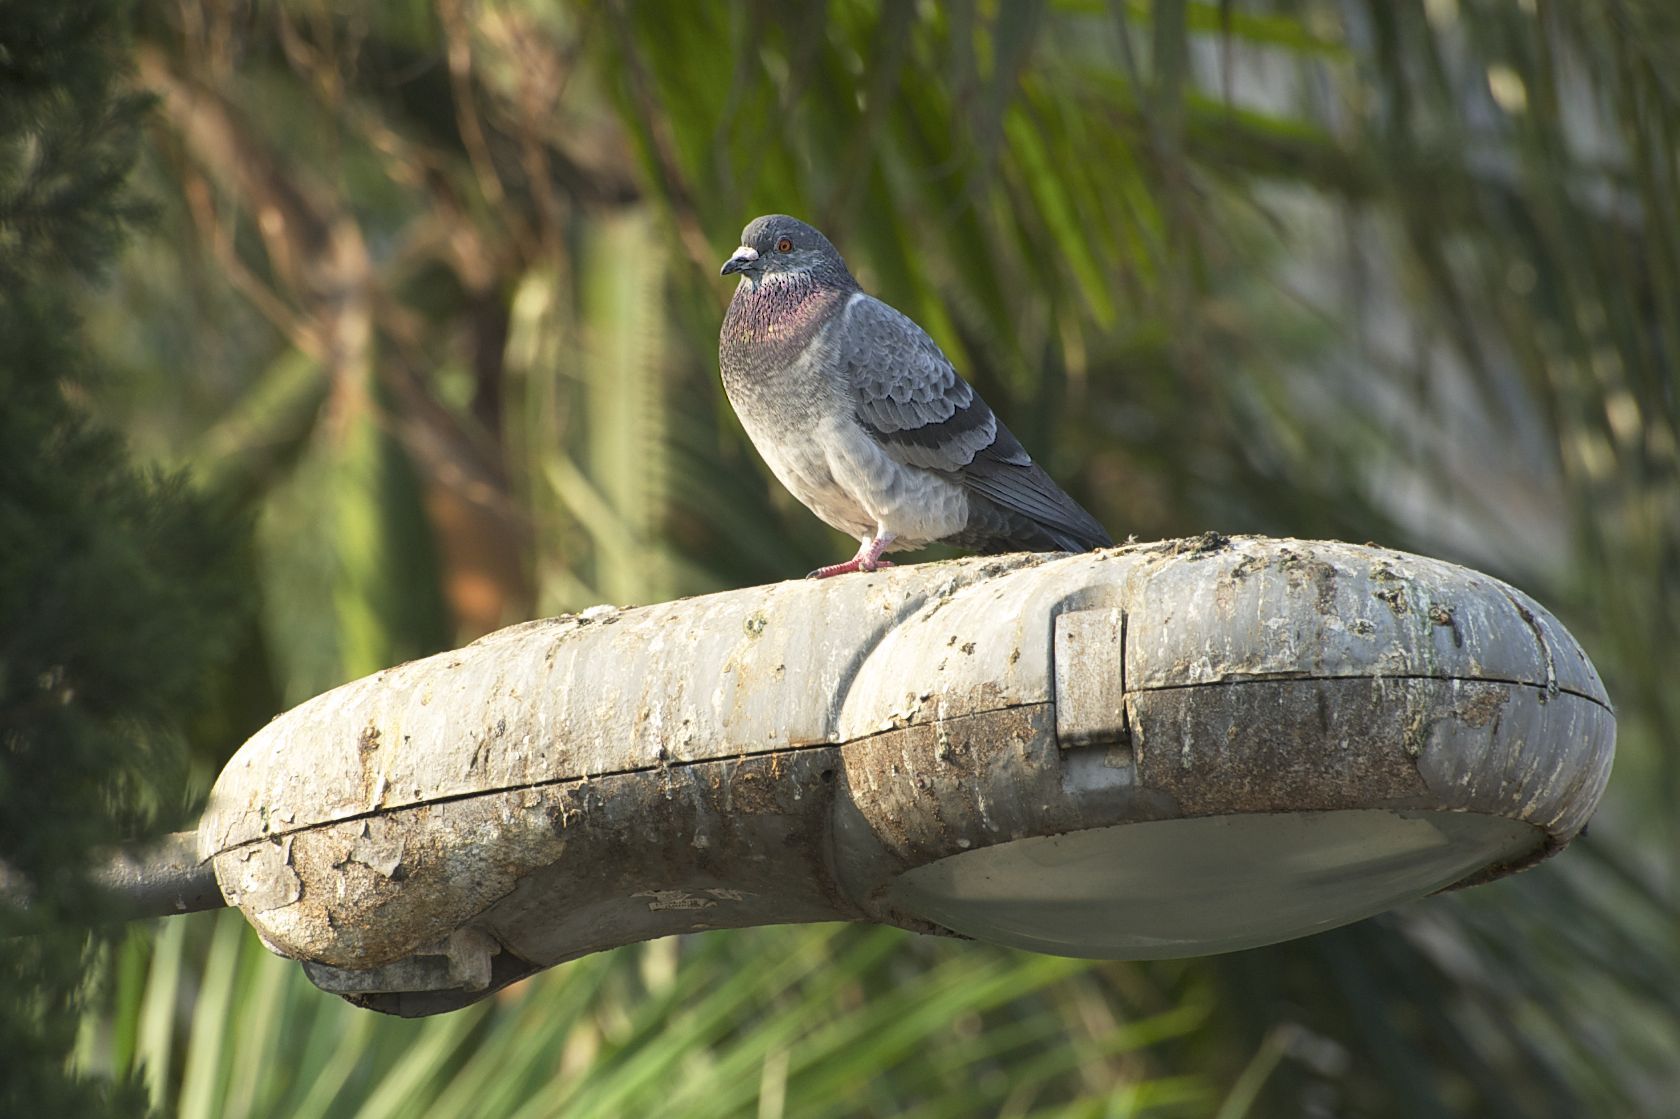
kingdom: Animalia
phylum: Chordata
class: Aves
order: Columbiformes
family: Columbidae
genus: Columba
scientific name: Columba livia
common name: Rock pigeon
